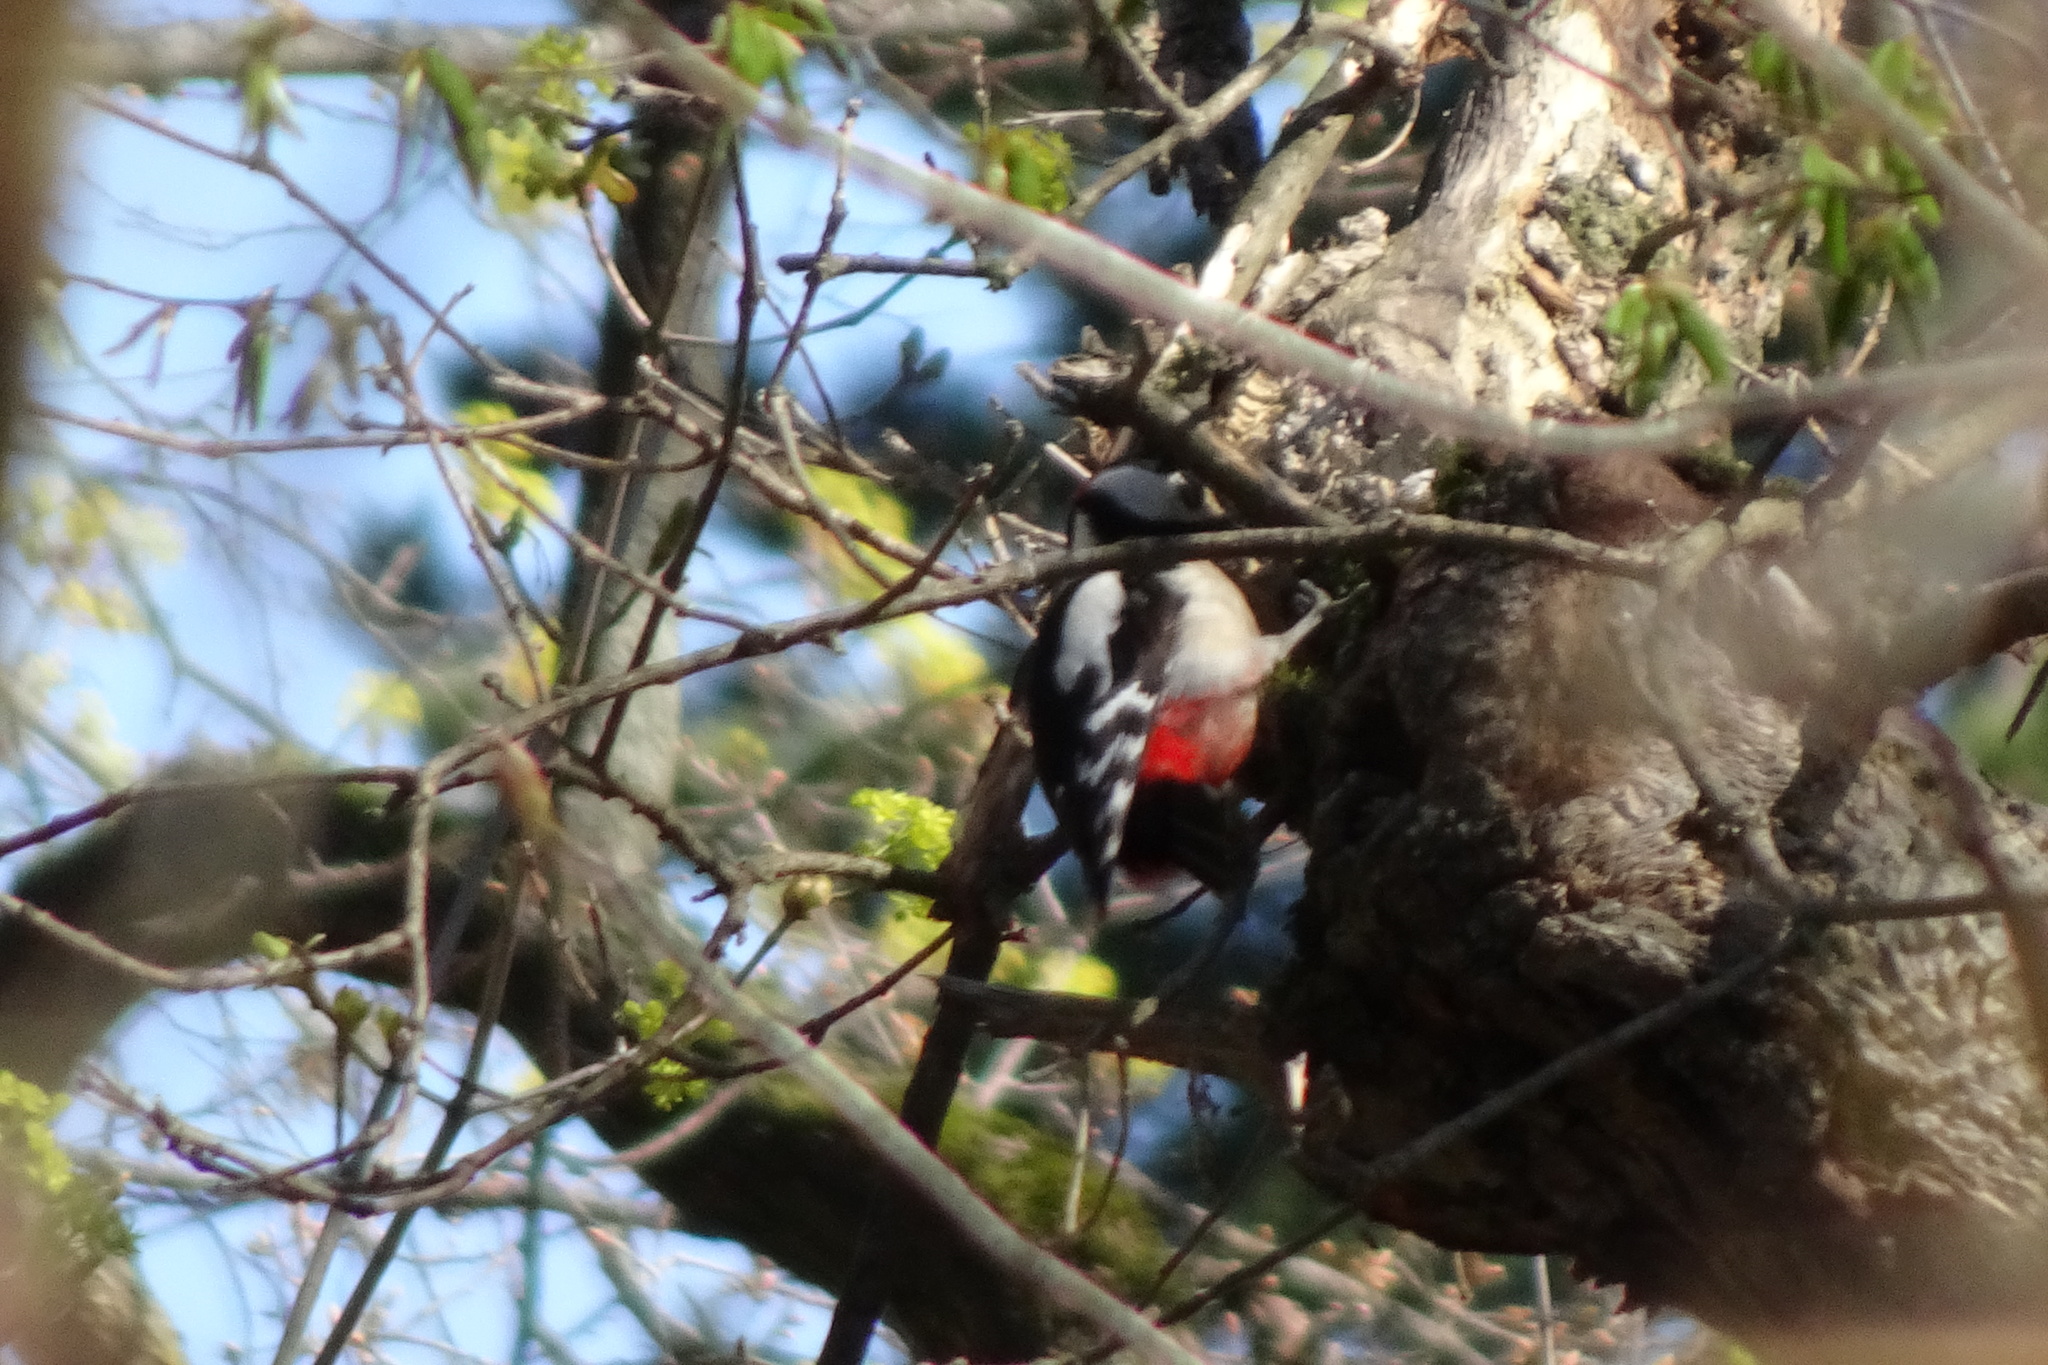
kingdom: Animalia
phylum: Chordata
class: Aves
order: Piciformes
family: Picidae
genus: Dendrocopos
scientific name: Dendrocopos major
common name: Great spotted woodpecker
